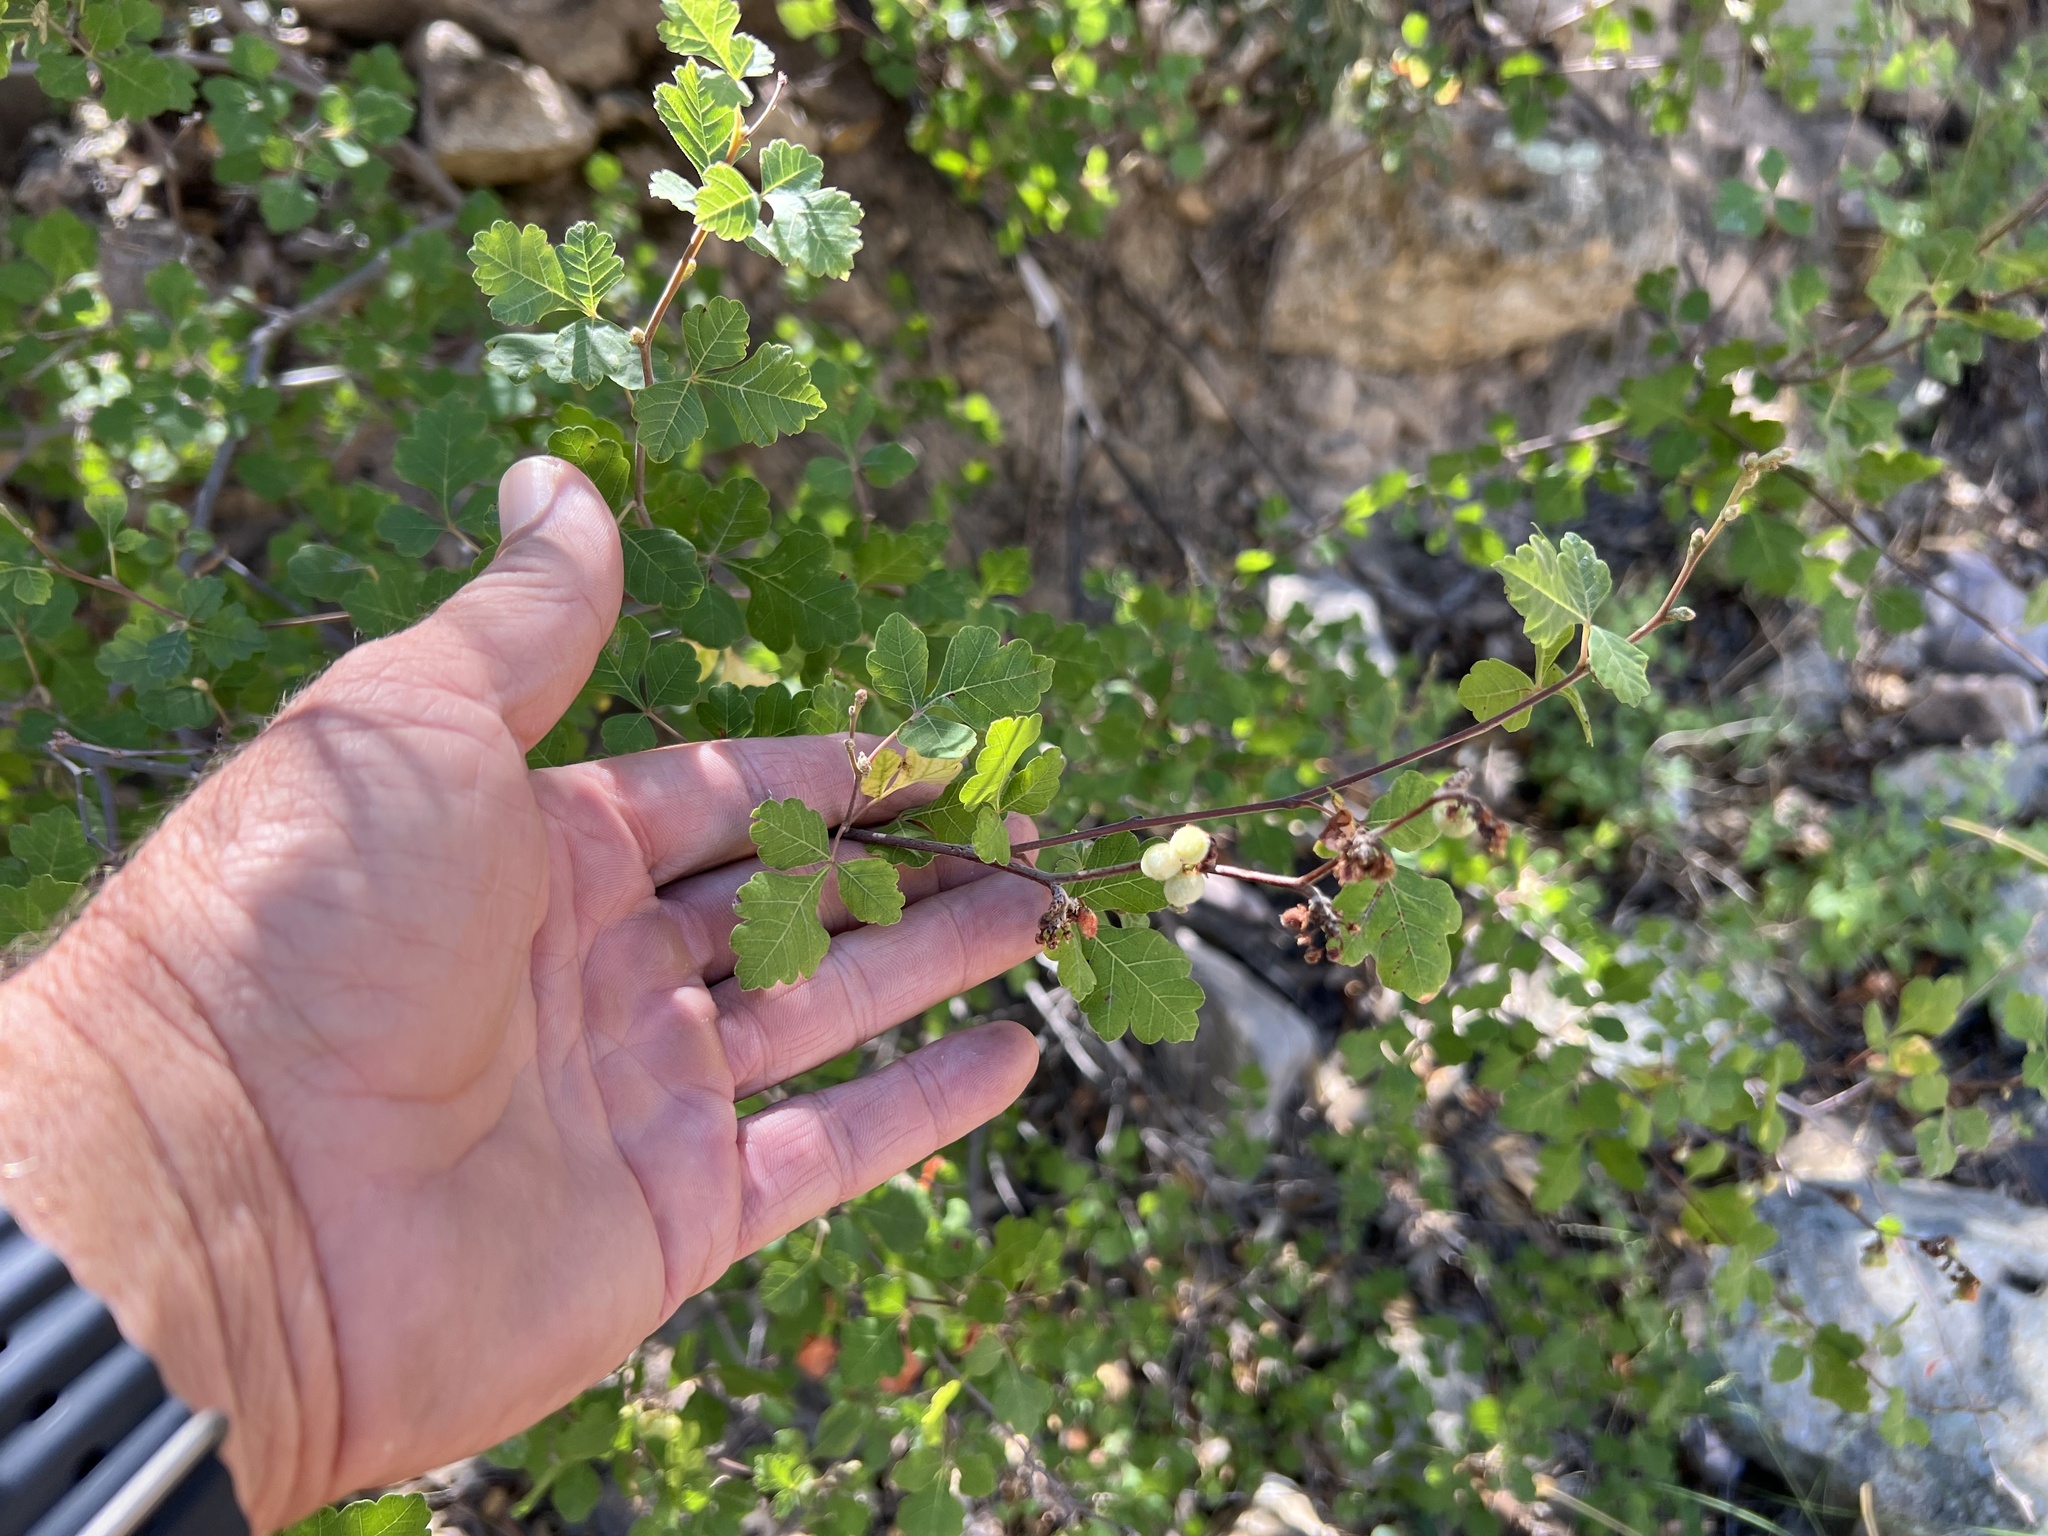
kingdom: Plantae
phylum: Tracheophyta
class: Magnoliopsida
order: Sapindales
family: Anacardiaceae
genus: Rhus
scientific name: Rhus trilobata
